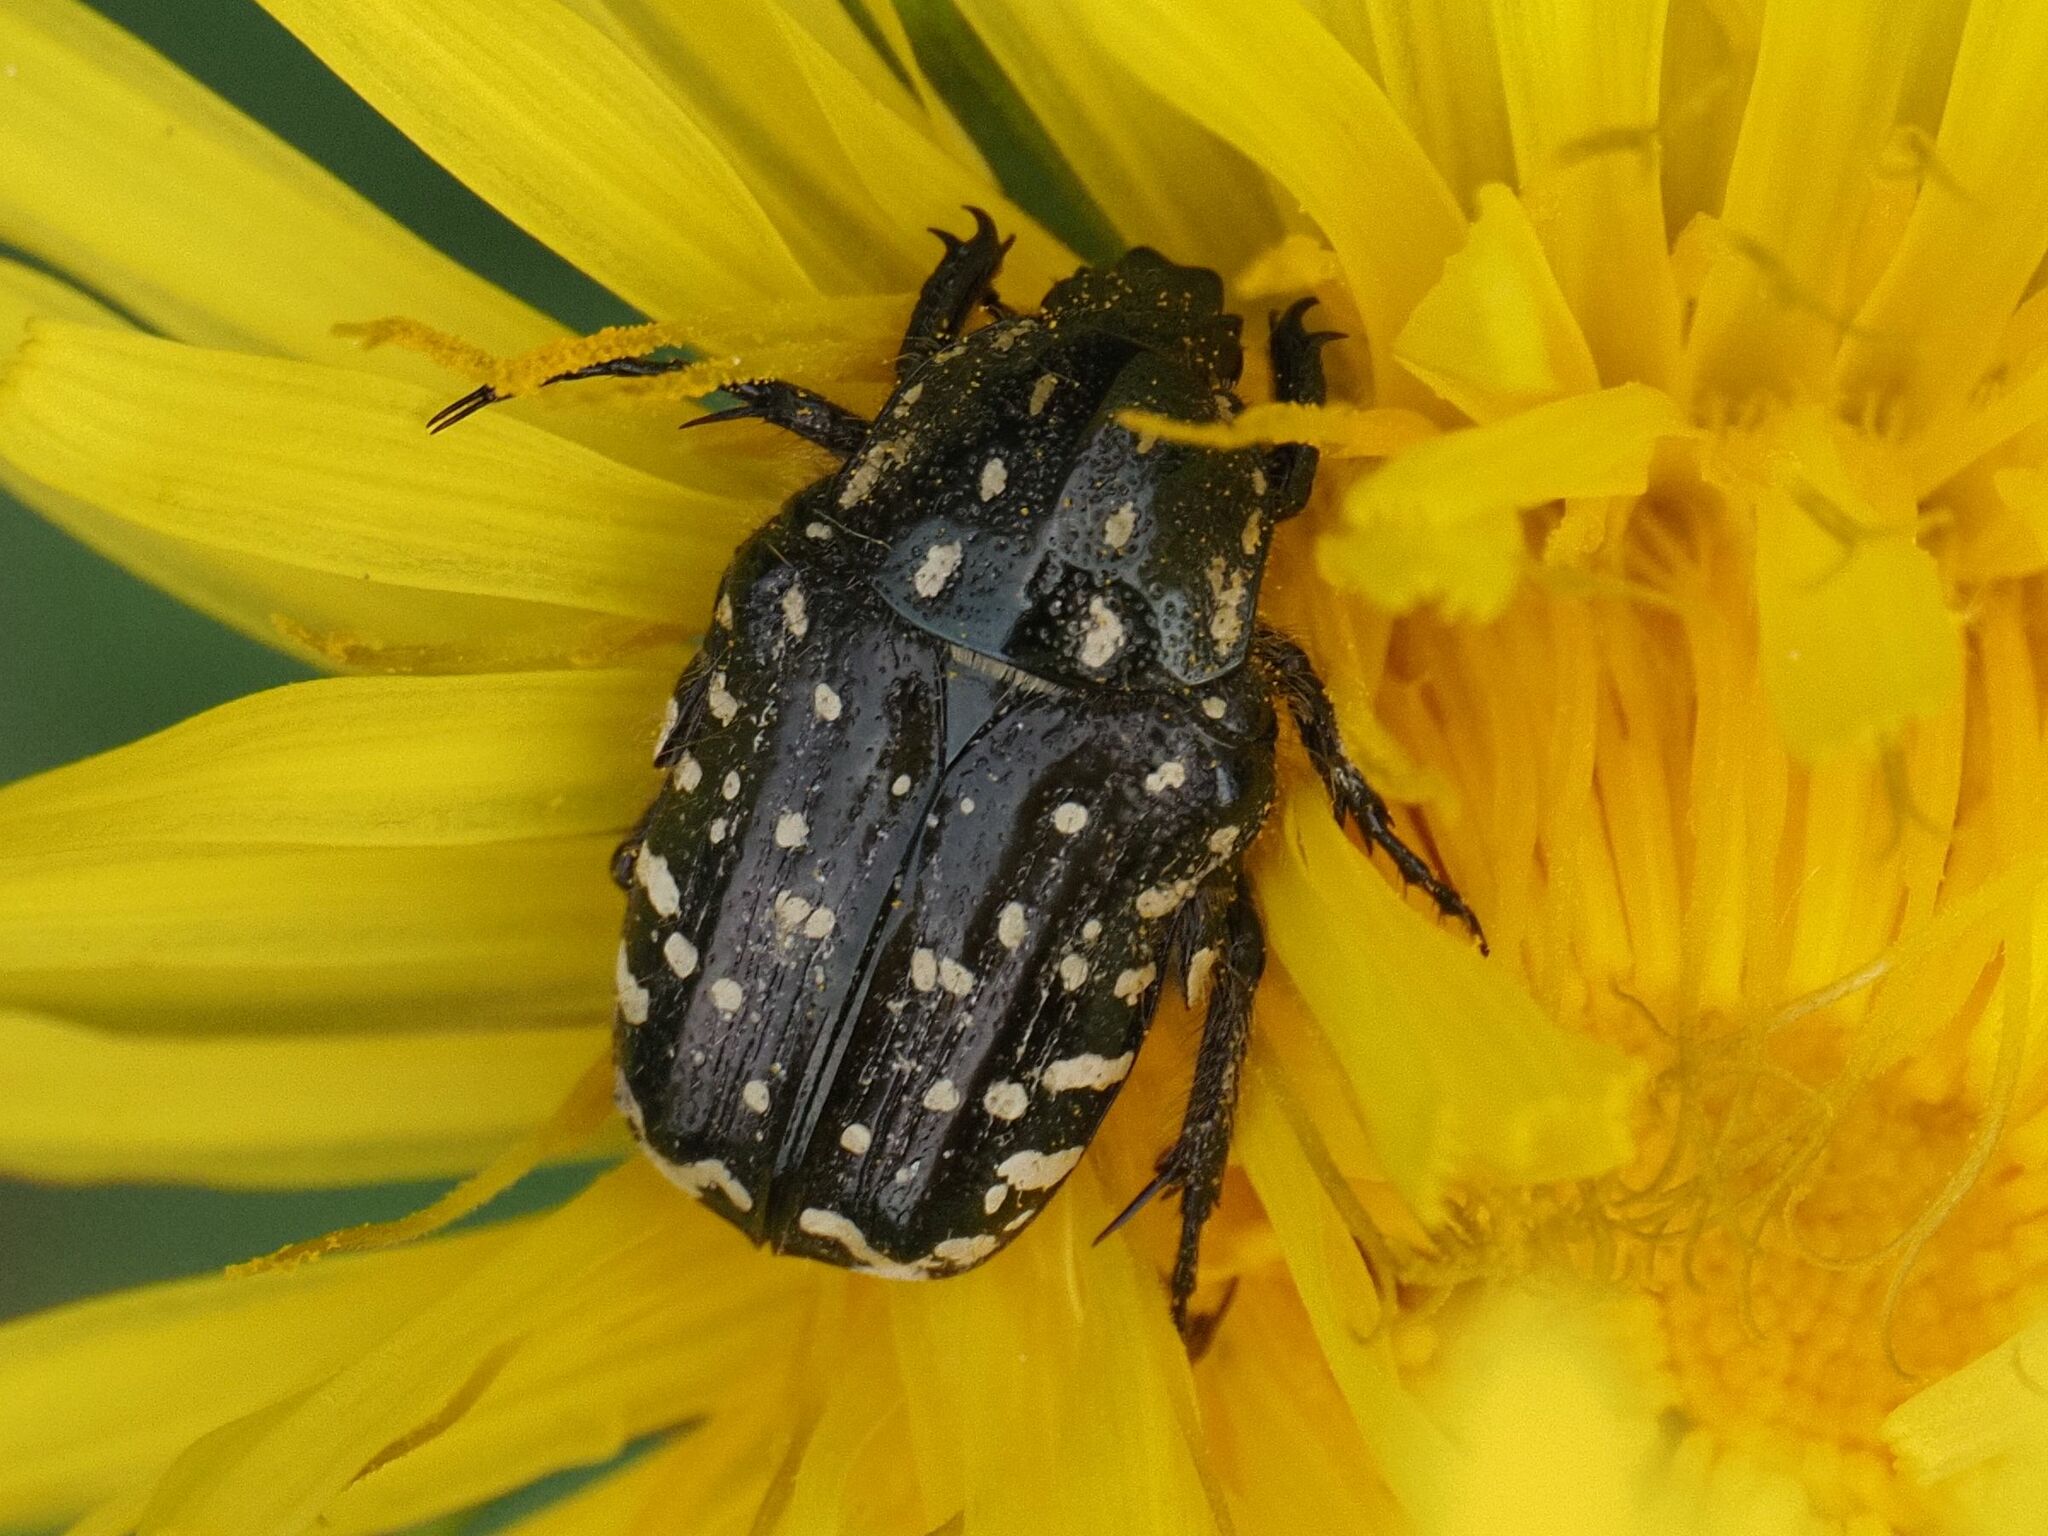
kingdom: Animalia
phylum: Arthropoda
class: Insecta
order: Coleoptera
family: Scarabaeidae
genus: Oxythyrea
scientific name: Oxythyrea funesta
